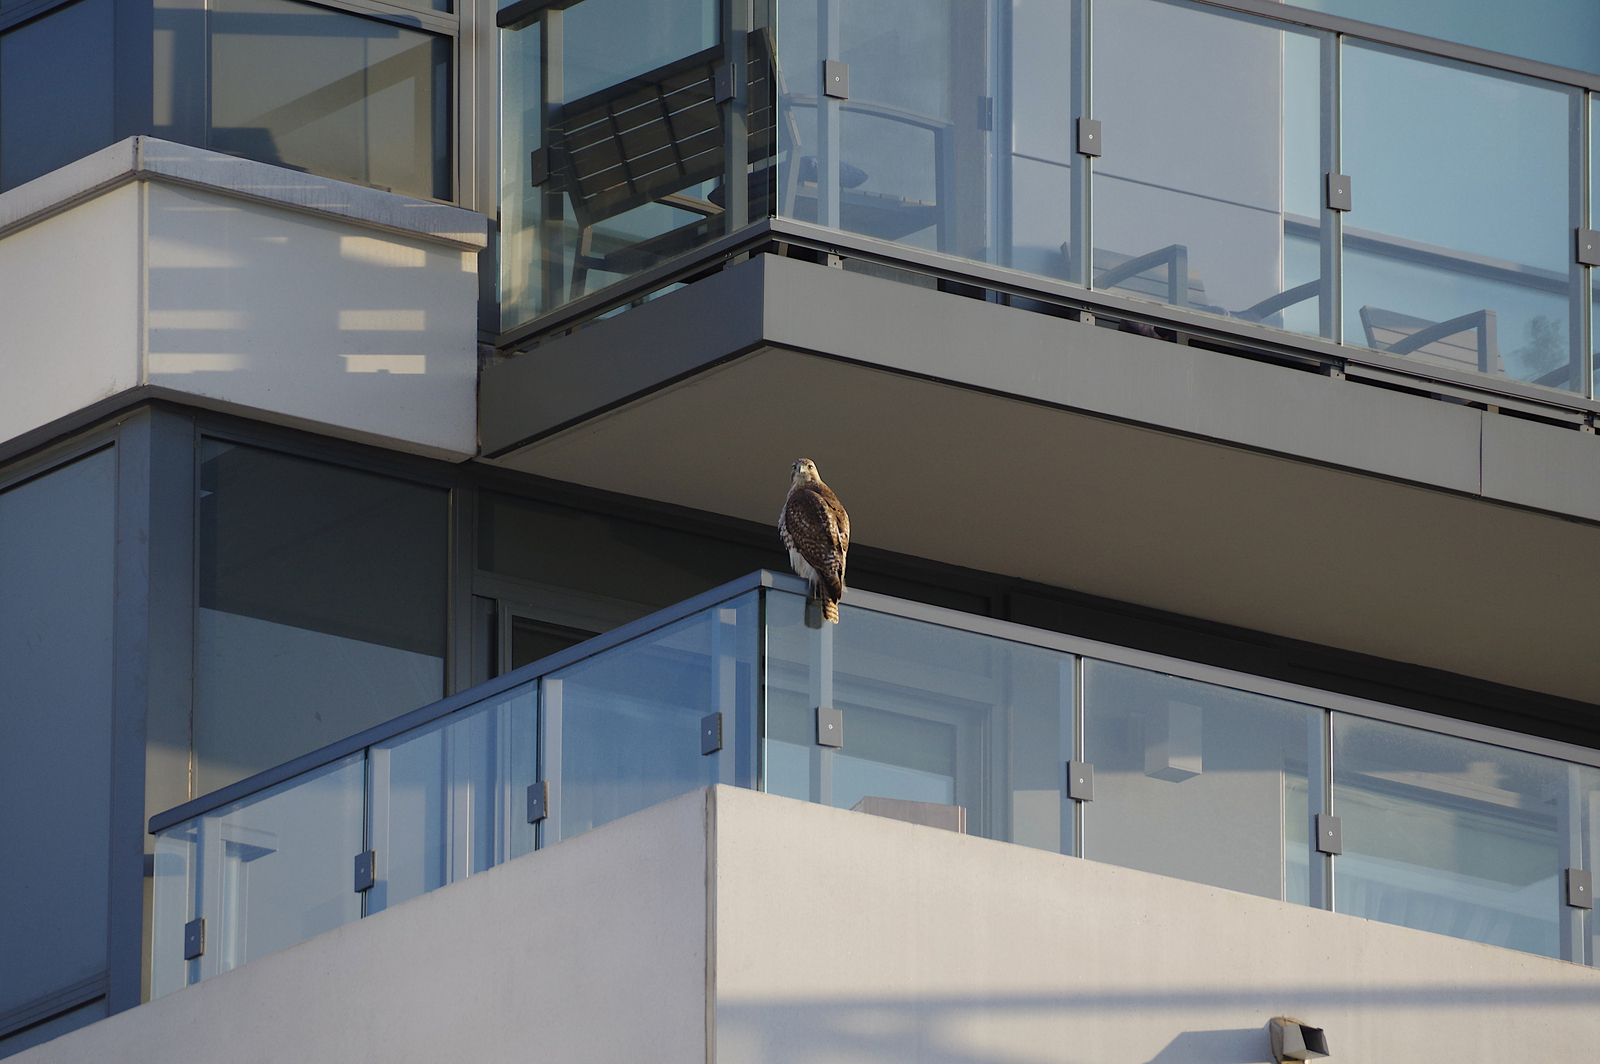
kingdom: Animalia
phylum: Chordata
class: Aves
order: Accipitriformes
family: Accipitridae
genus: Buteo
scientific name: Buteo jamaicensis
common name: Red-tailed hawk
